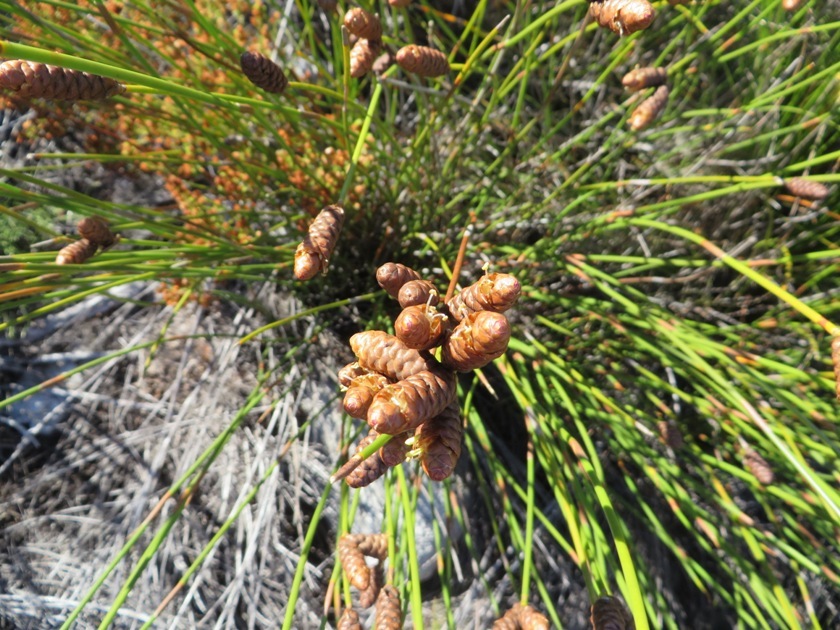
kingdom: Plantae
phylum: Tracheophyta
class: Liliopsida
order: Poales
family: Restionaceae
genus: Nevillea
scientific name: Nevillea obtusissimus
